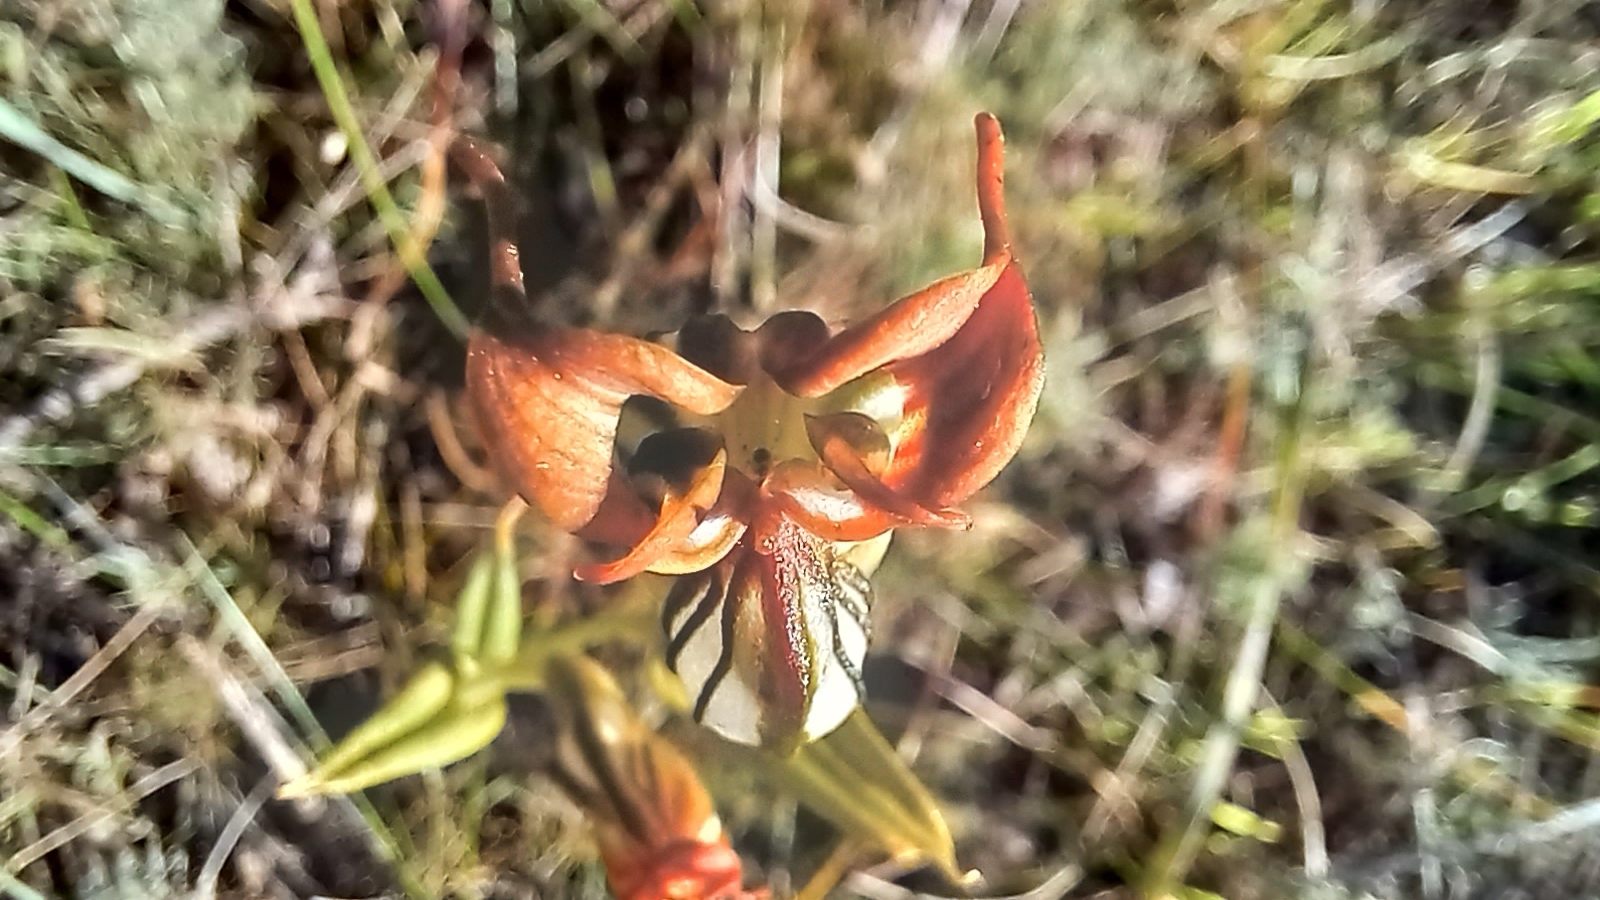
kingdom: Plantae
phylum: Tracheophyta
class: Liliopsida
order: Asparagales
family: Orchidaceae
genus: Pterostylis
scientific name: Pterostylis recurva
